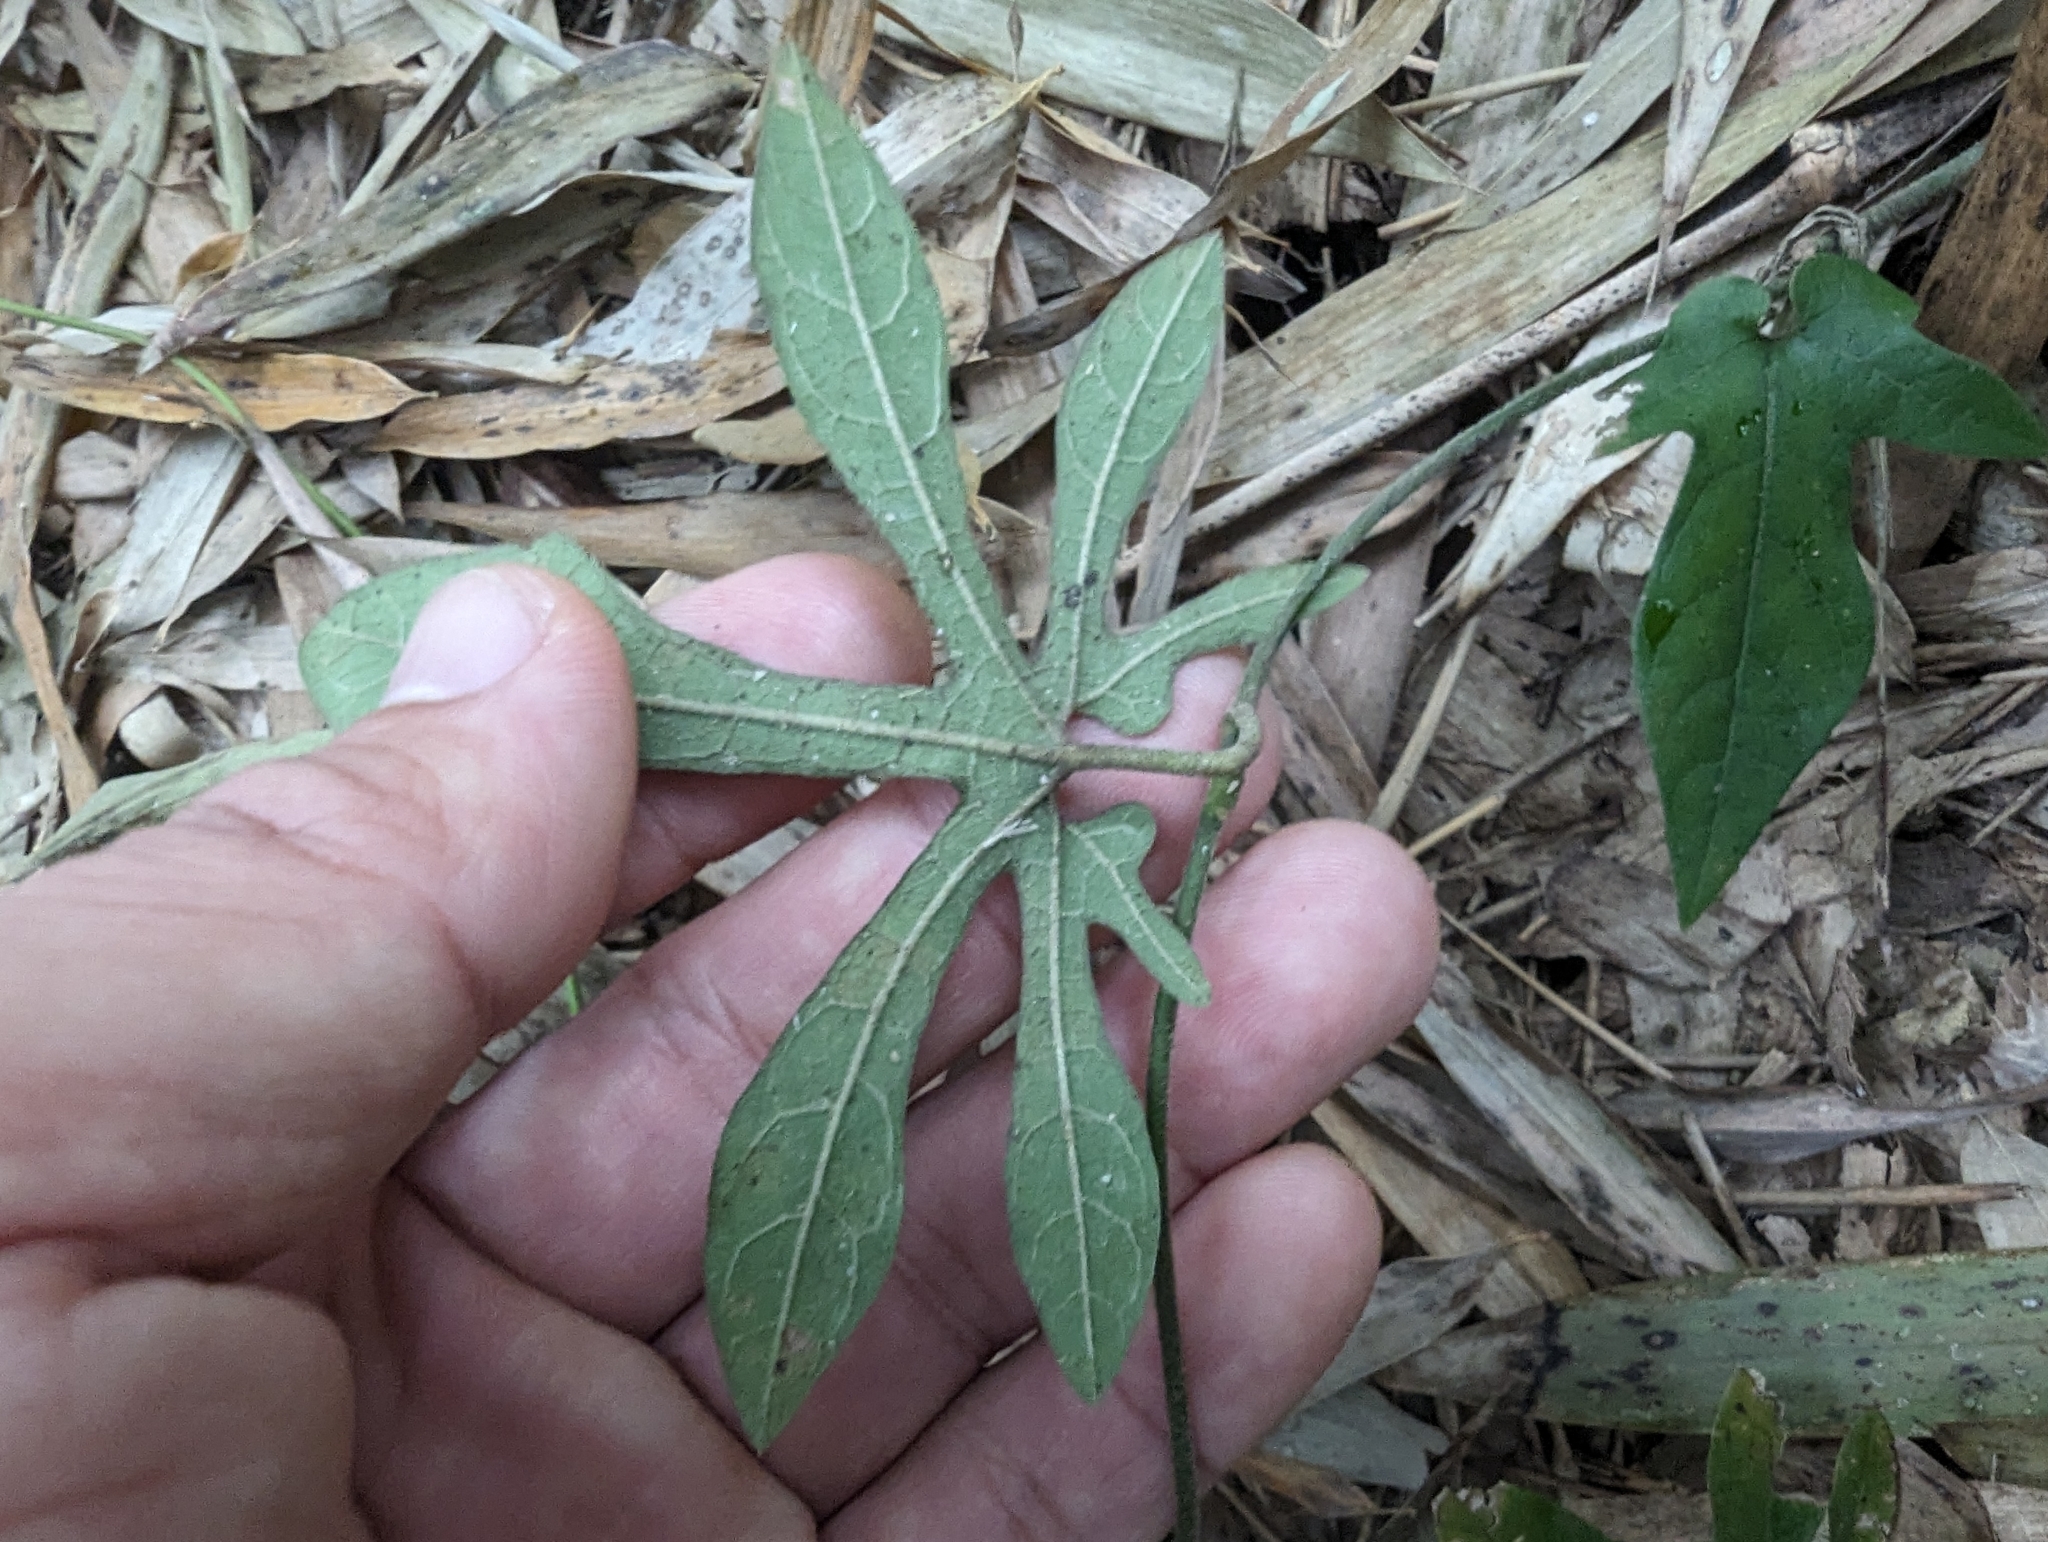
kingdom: Plantae
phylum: Tracheophyta
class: Magnoliopsida
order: Piperales
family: Aristolochiaceae
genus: Isotrema
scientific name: Isotrema cucurbitifolium
